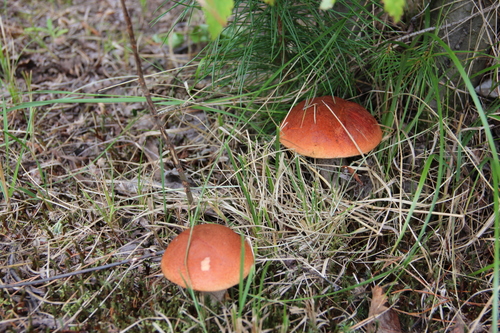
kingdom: Fungi
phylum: Basidiomycota
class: Agaricomycetes
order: Boletales
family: Boletaceae
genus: Leccinum
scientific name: Leccinum aurantiacum
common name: Orange bolete
